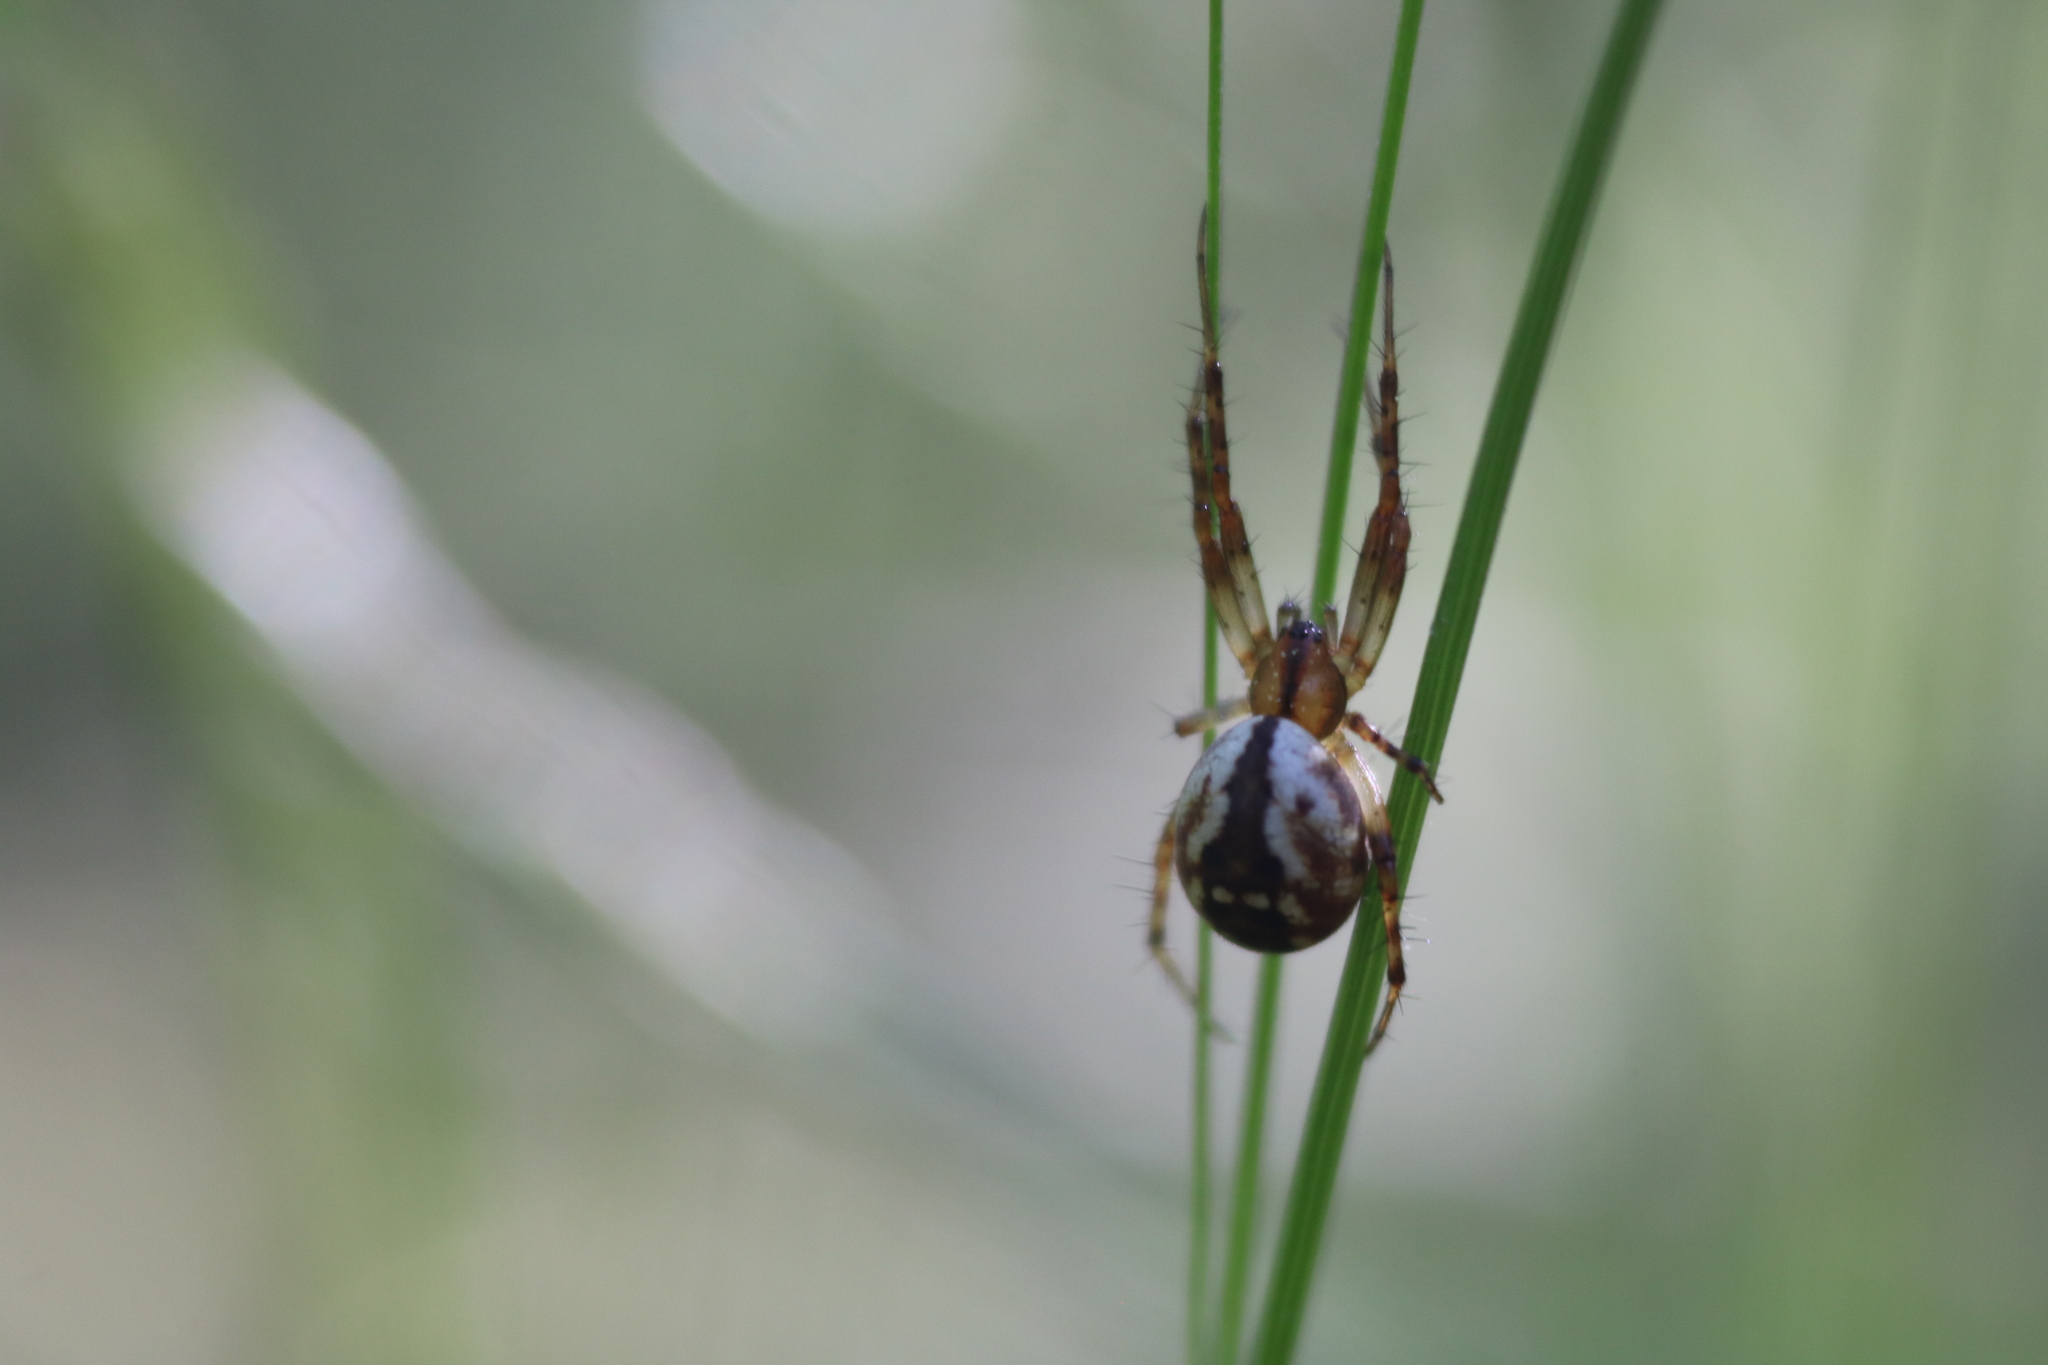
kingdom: Animalia
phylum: Arthropoda
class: Arachnida
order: Araneae
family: Araneidae
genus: Mangora
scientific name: Mangora placida
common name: Tuft-legged orbweaver
